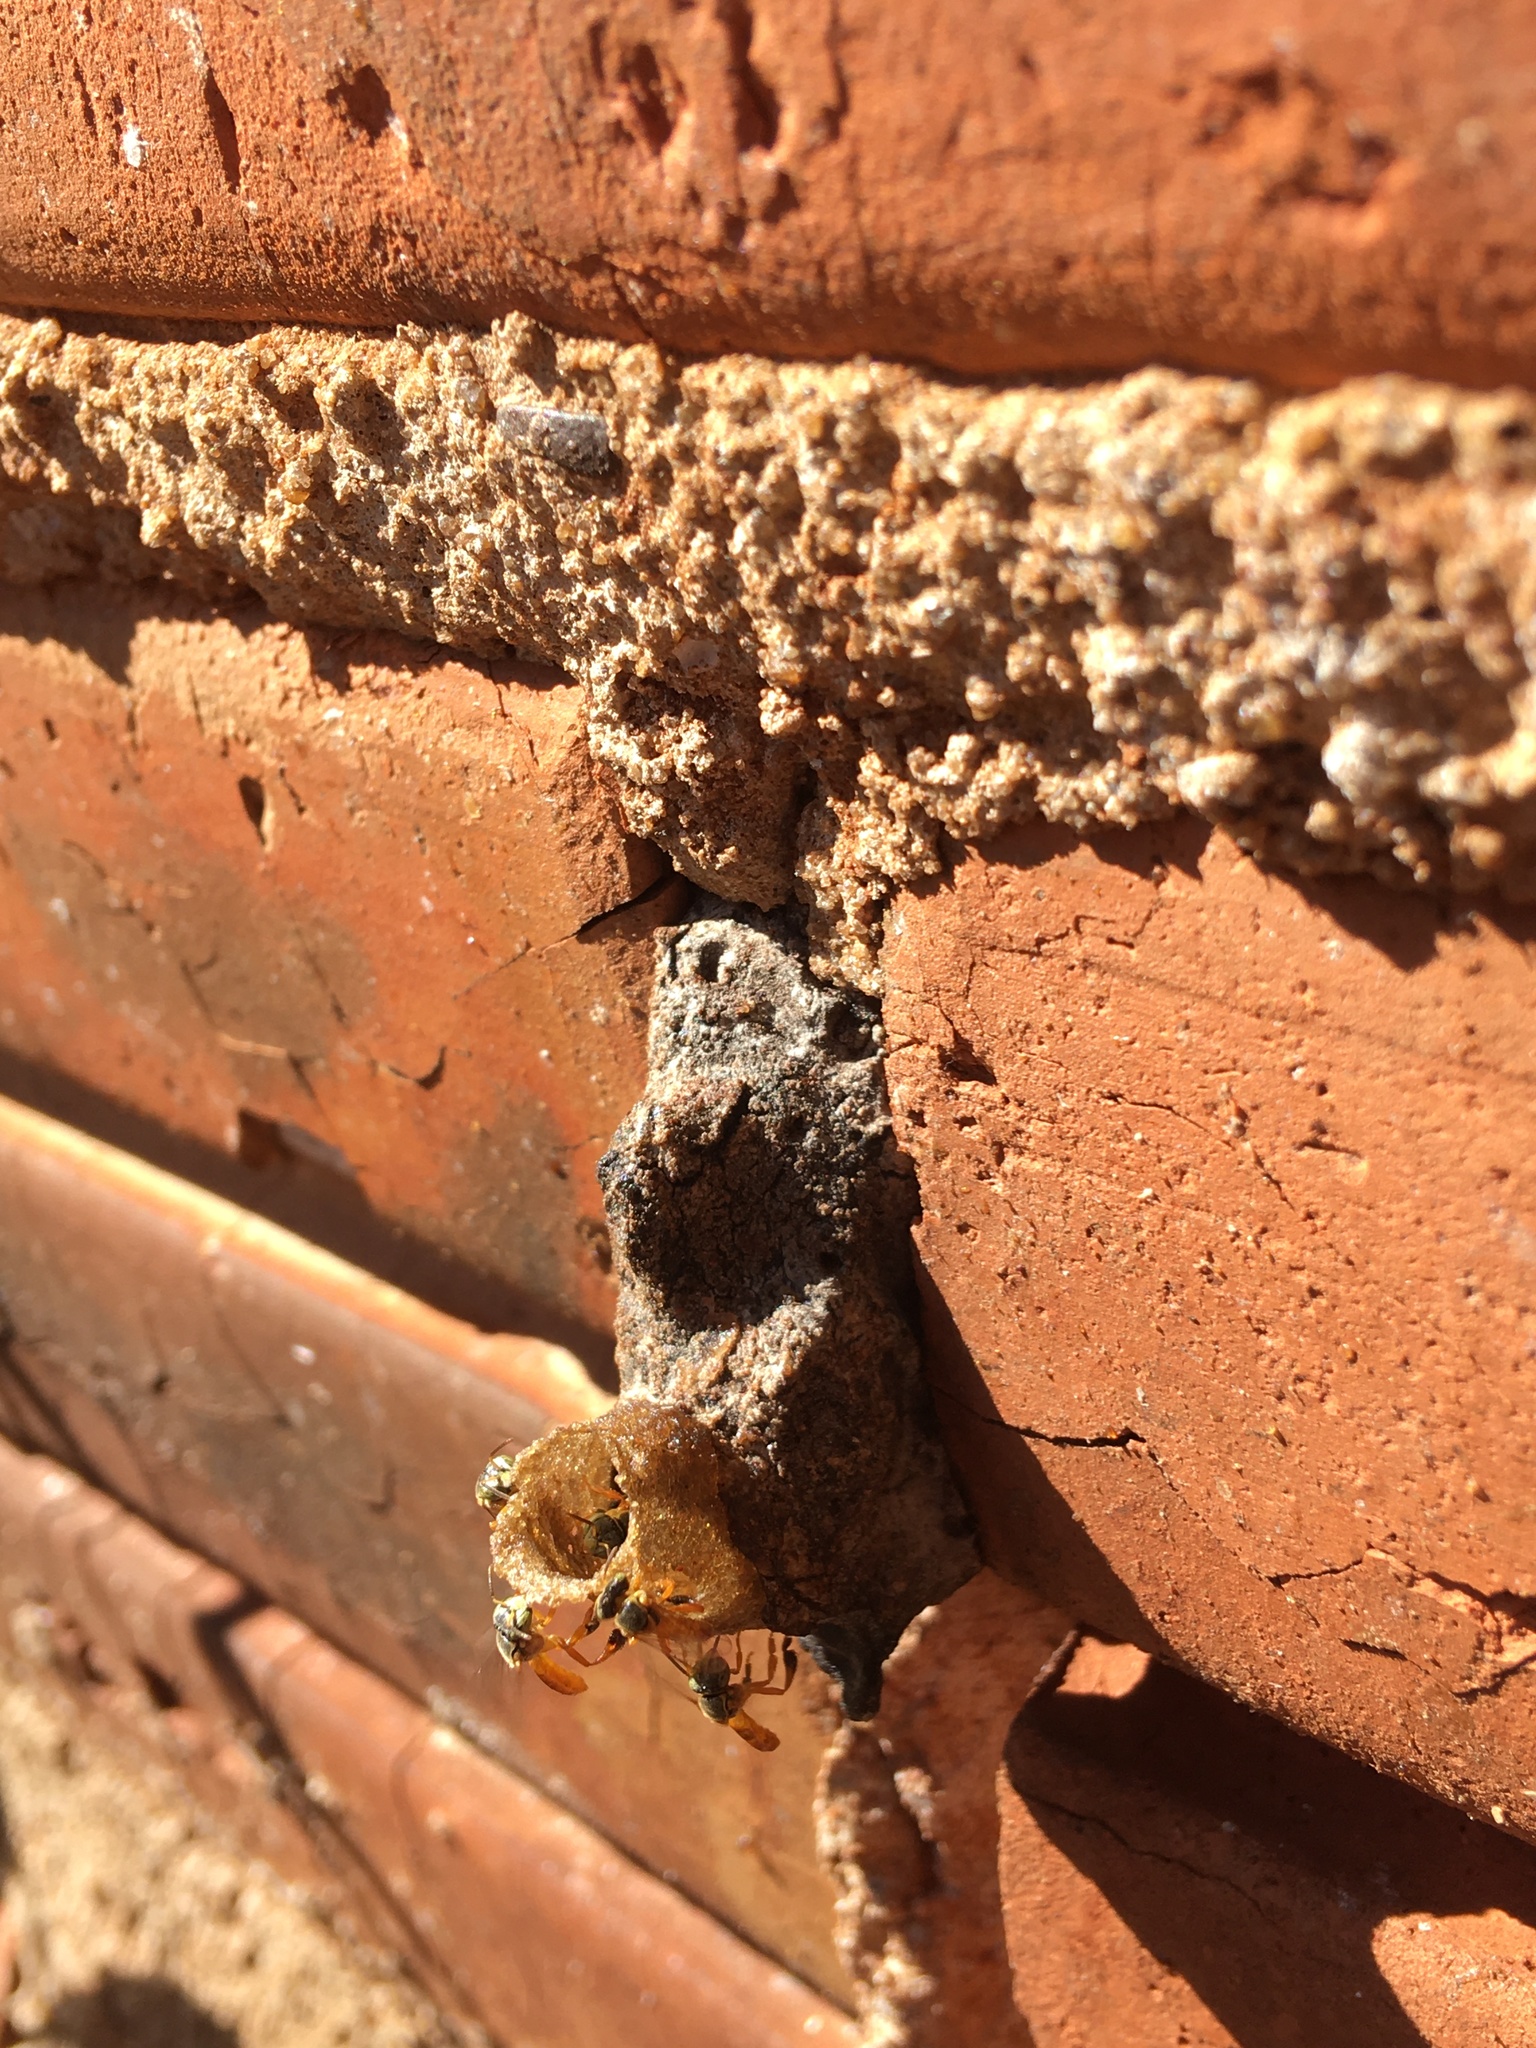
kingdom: Animalia
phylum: Arthropoda
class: Insecta
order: Hymenoptera
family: Apidae
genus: Tetragonisca
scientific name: Tetragonisca fiebrigi
